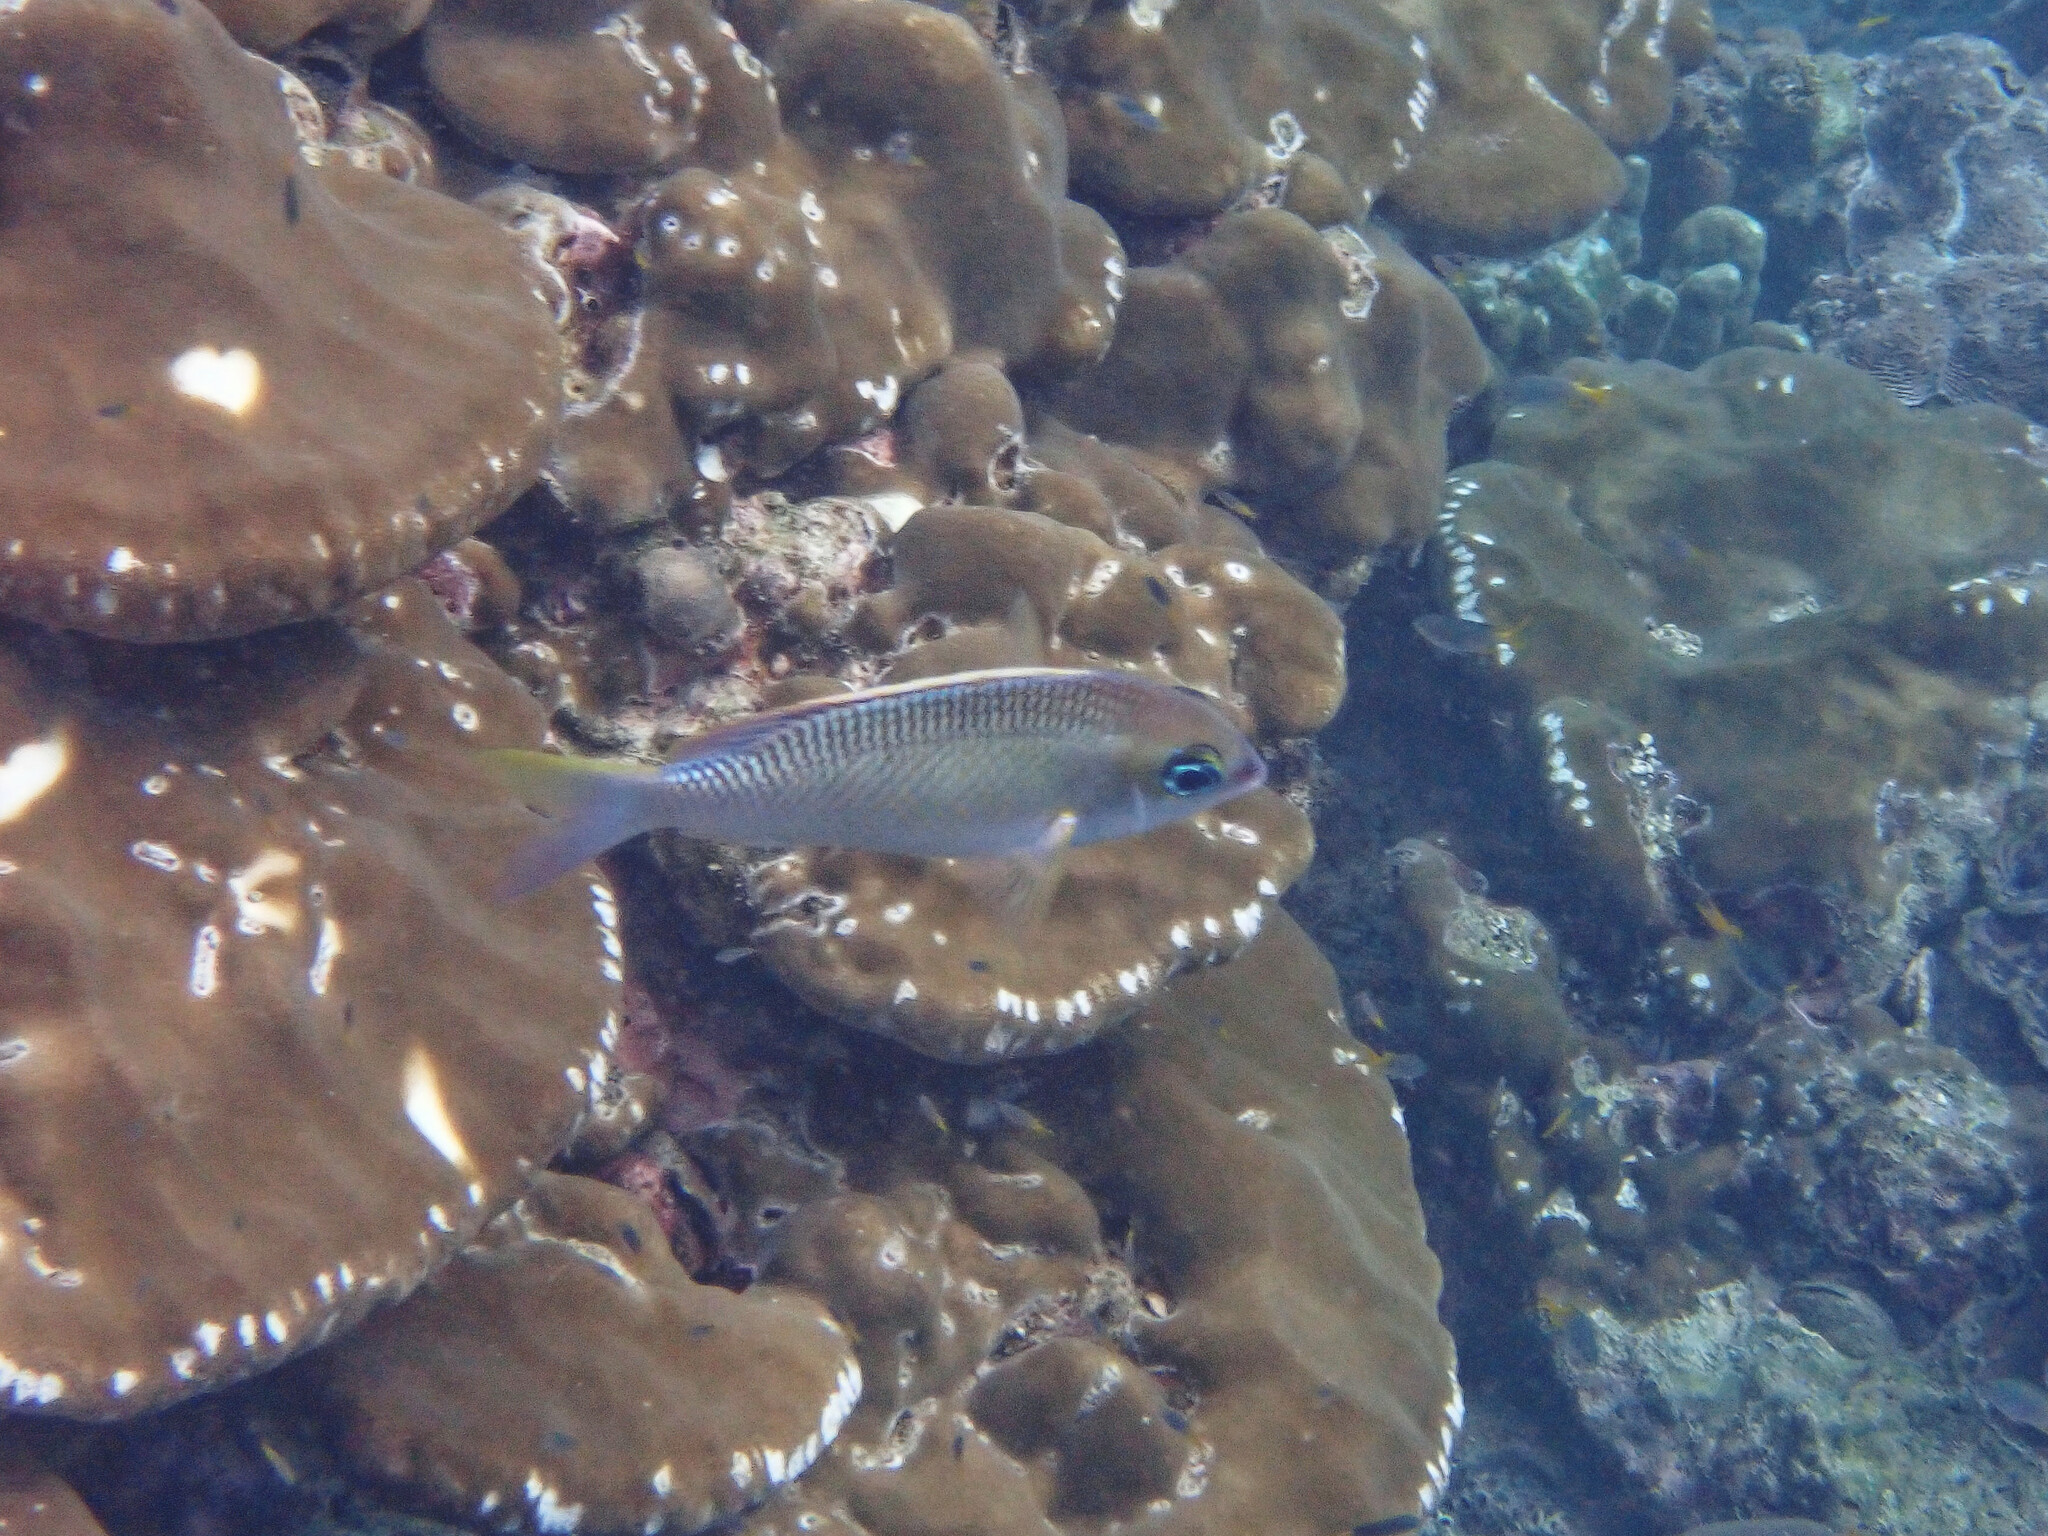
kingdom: Animalia
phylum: Chordata
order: Perciformes
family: Nemipteridae
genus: Scolopsis
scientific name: Scolopsis margaritifera
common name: Pearly monocle bream
